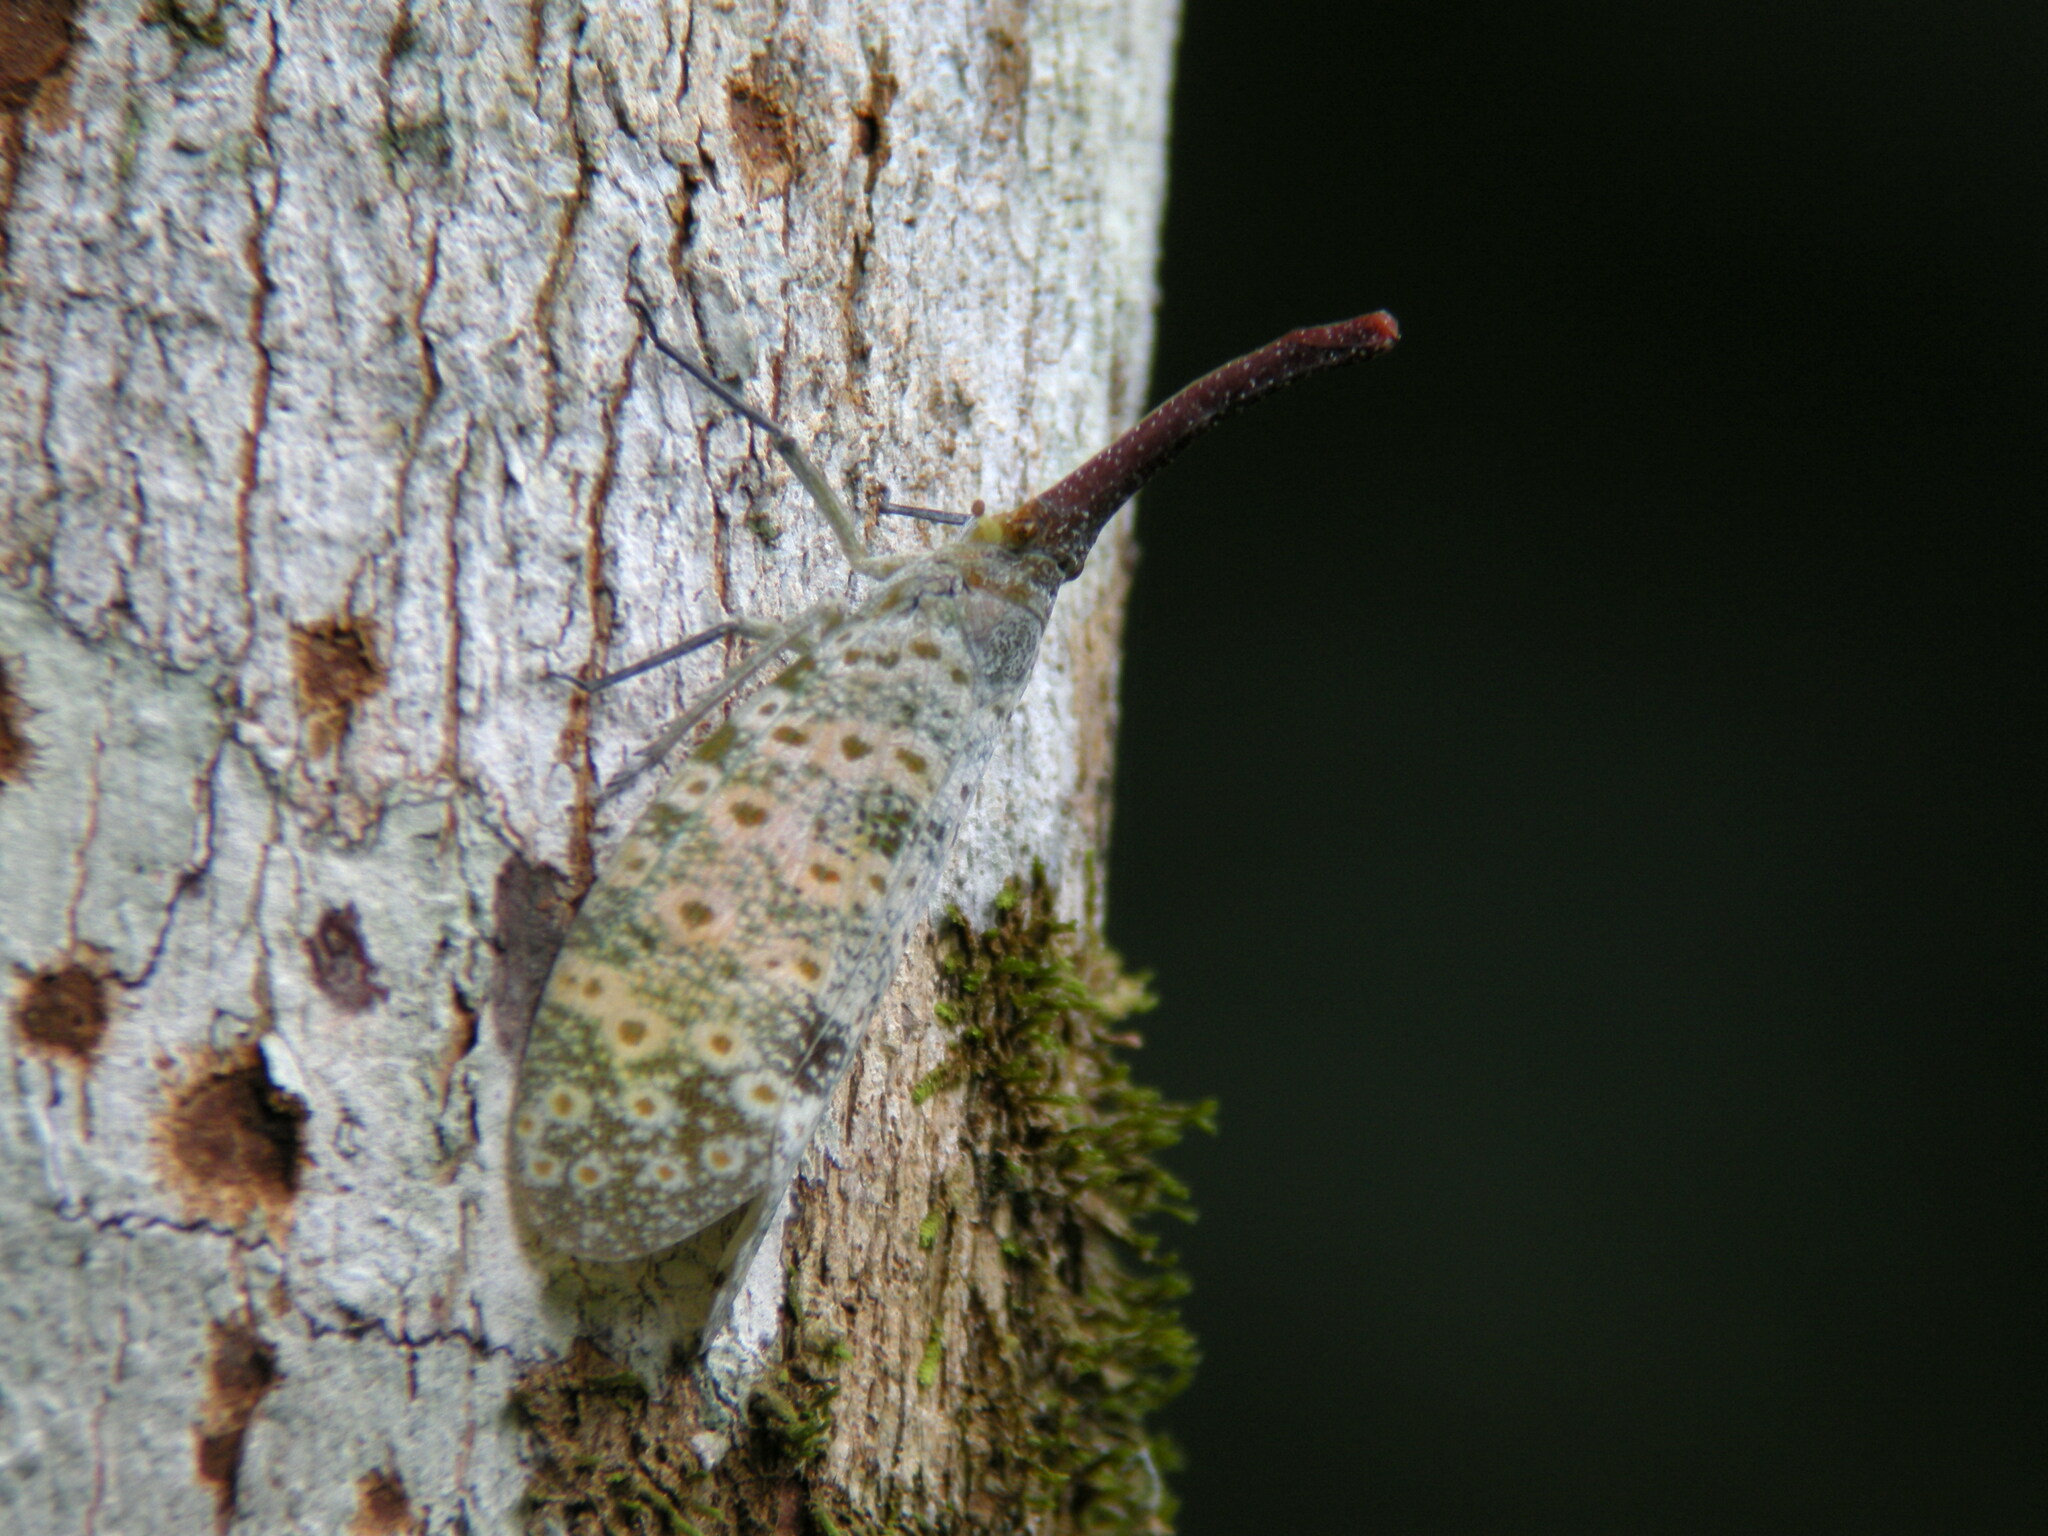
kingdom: Animalia
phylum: Arthropoda
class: Insecta
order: Hemiptera
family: Fulgoridae
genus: Pyrops
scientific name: Pyrops oculatus
